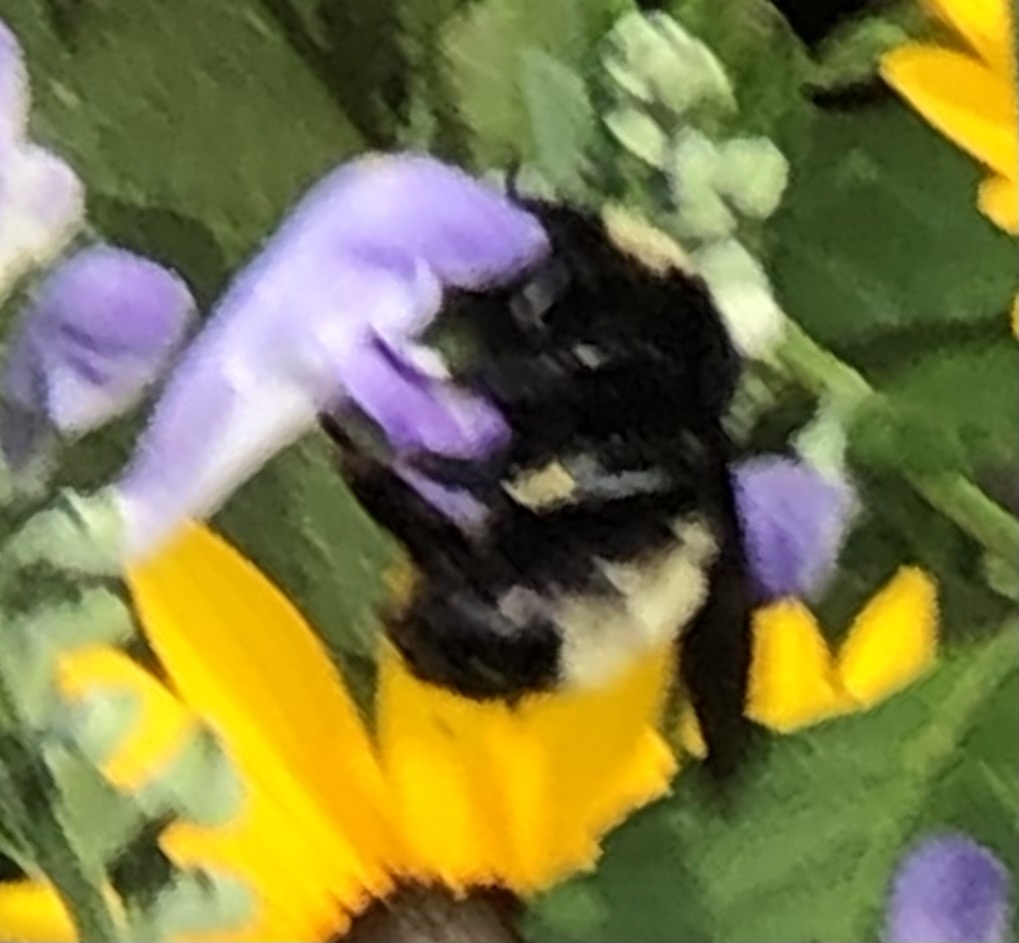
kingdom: Animalia
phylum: Arthropoda
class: Insecta
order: Hymenoptera
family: Apidae
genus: Bombus
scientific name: Bombus pensylvanicus
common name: Bumble bee
